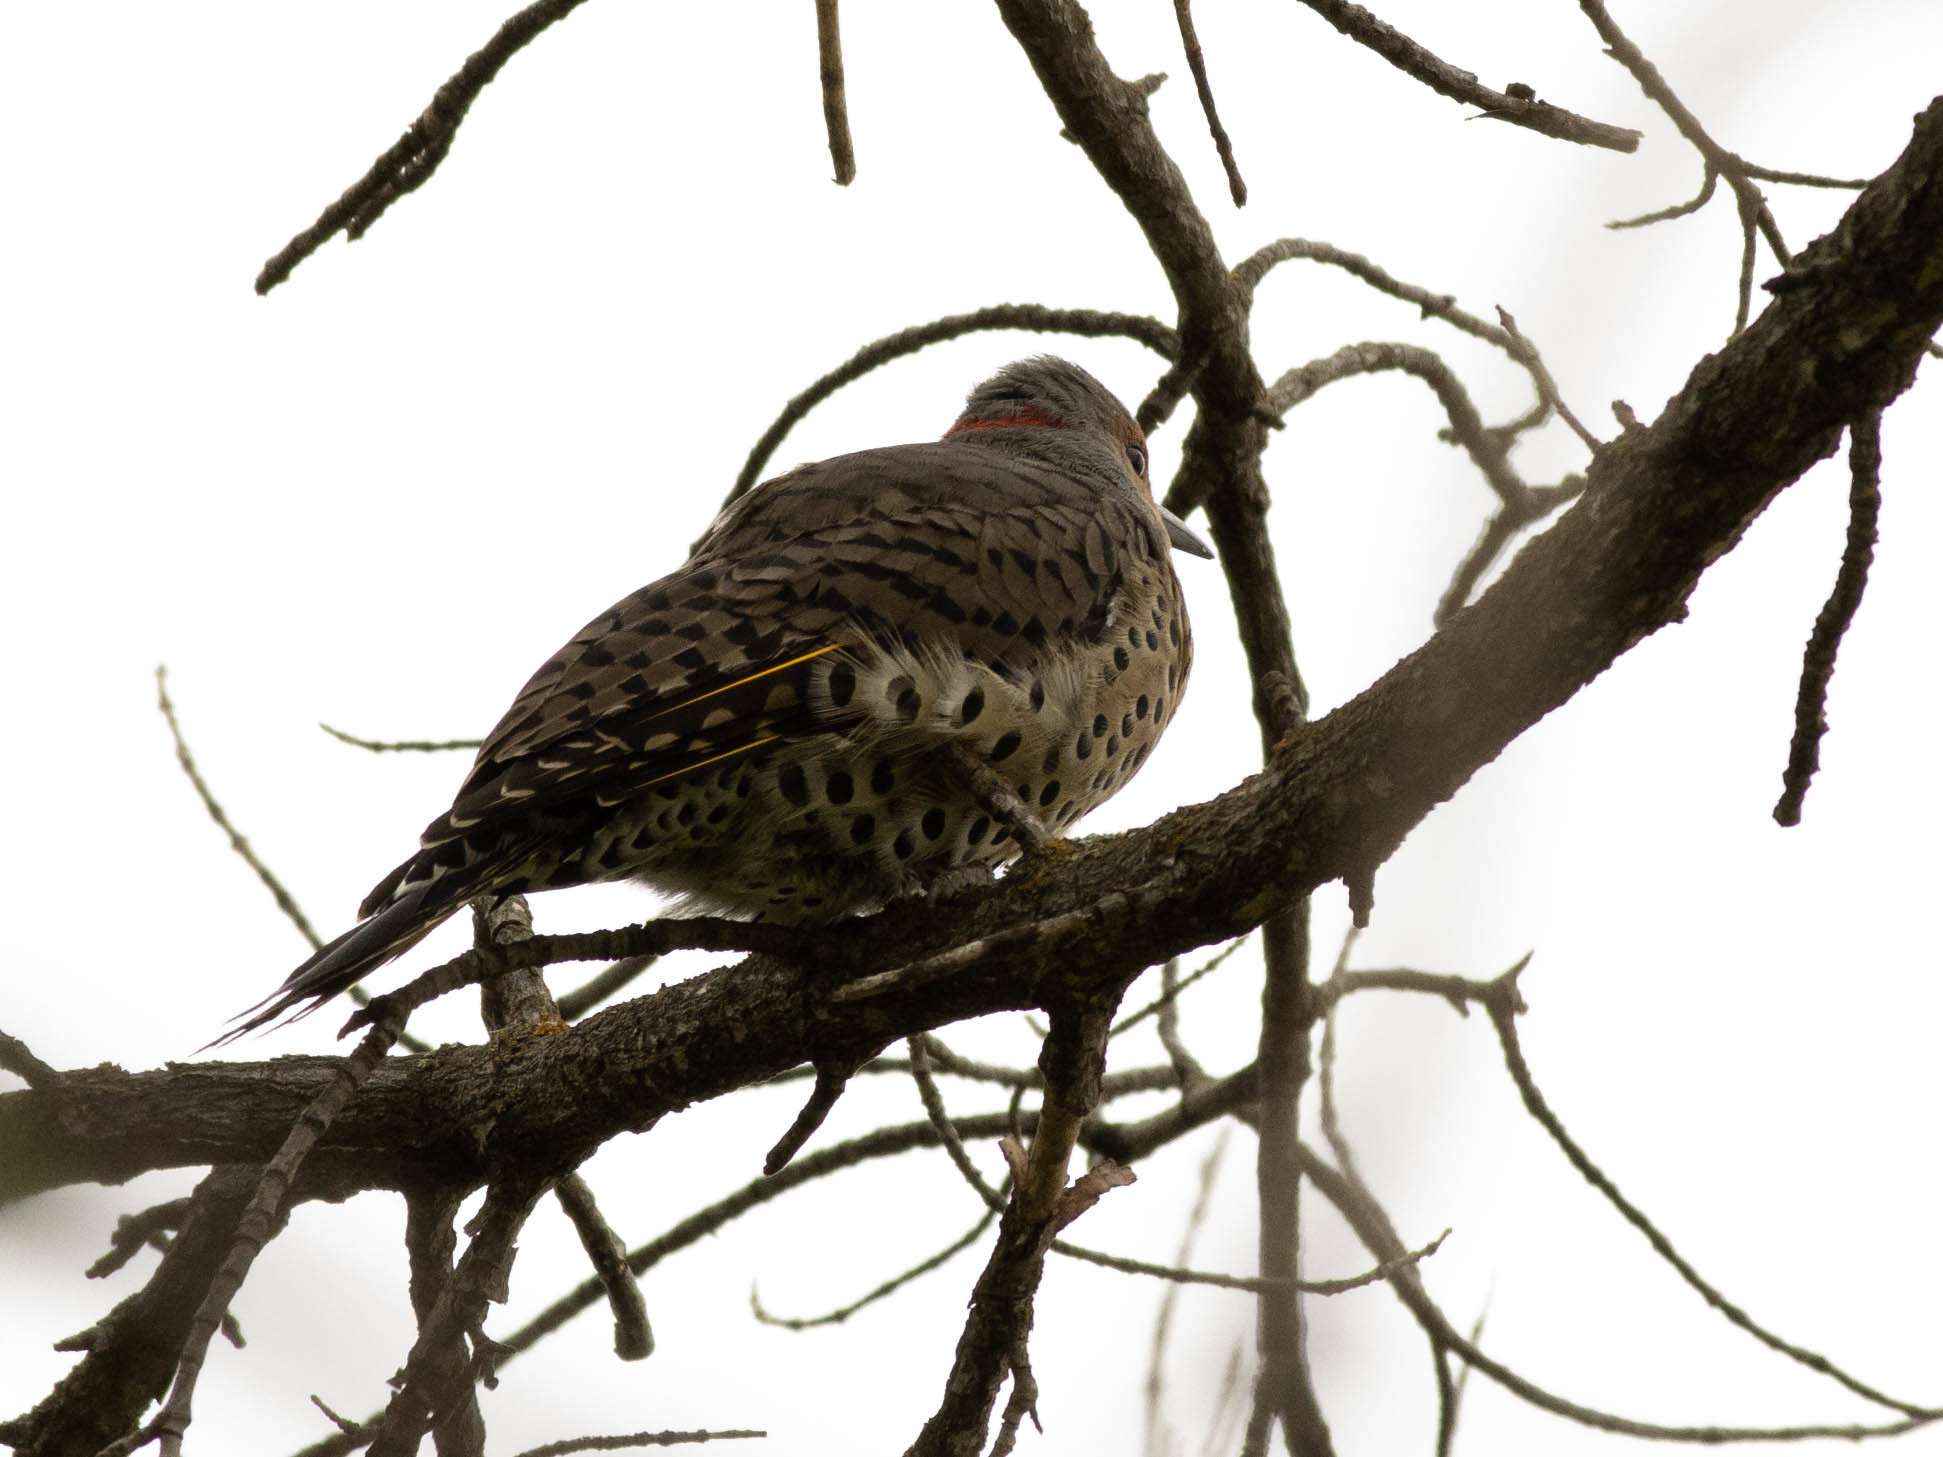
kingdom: Animalia
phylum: Chordata
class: Aves
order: Piciformes
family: Picidae
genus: Colaptes
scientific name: Colaptes auratus
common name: Northern flicker
